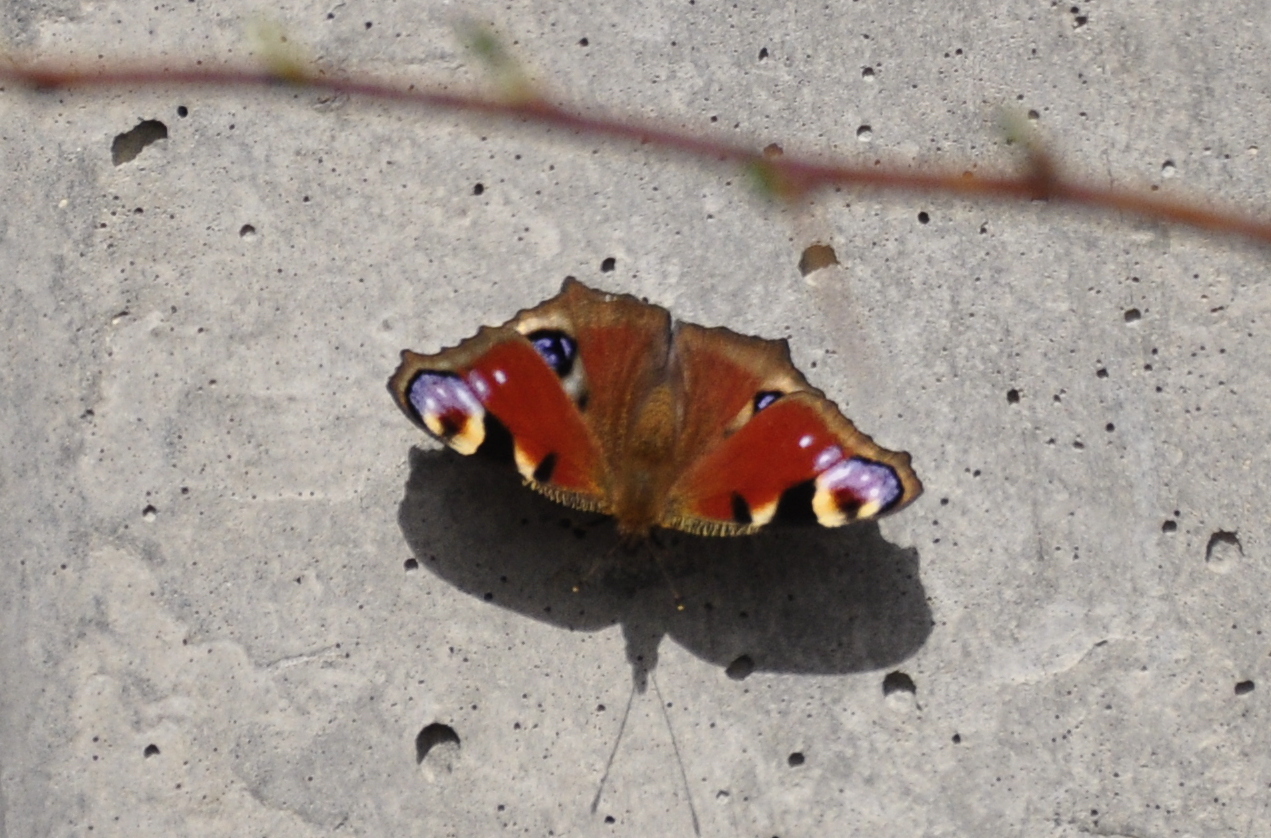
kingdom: Animalia
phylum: Arthropoda
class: Insecta
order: Lepidoptera
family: Nymphalidae
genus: Aglais
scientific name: Aglais io
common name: Peacock
